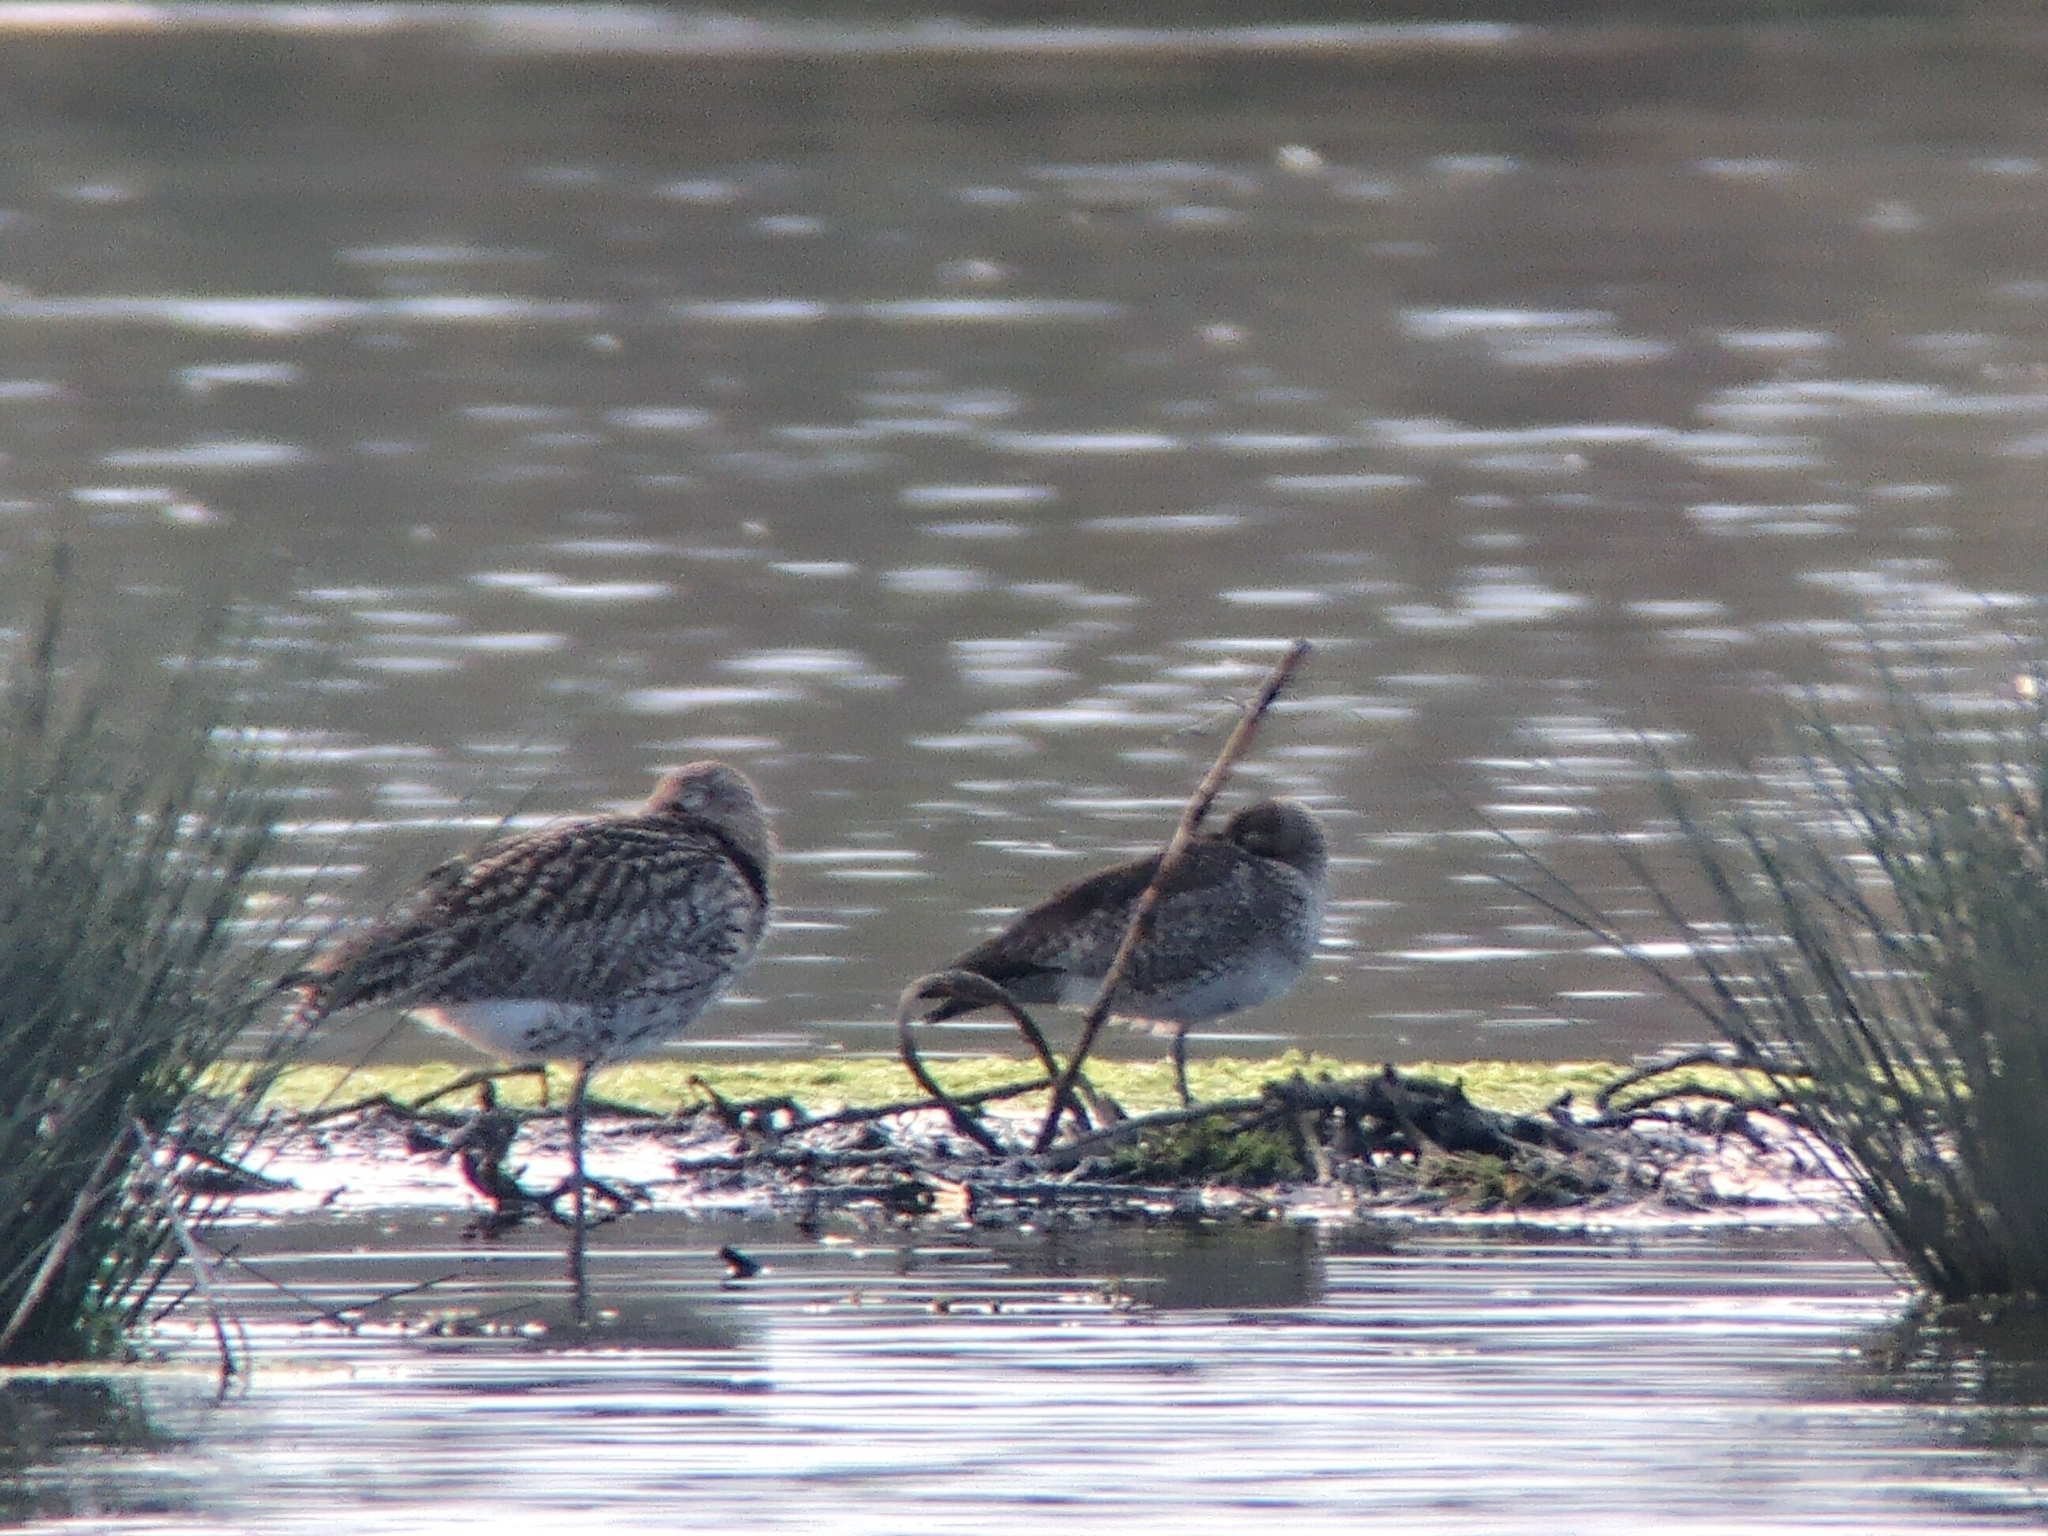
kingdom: Animalia
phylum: Chordata
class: Aves
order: Charadriiformes
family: Scolopacidae
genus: Numenius
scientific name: Numenius phaeopus
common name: Whimbrel
